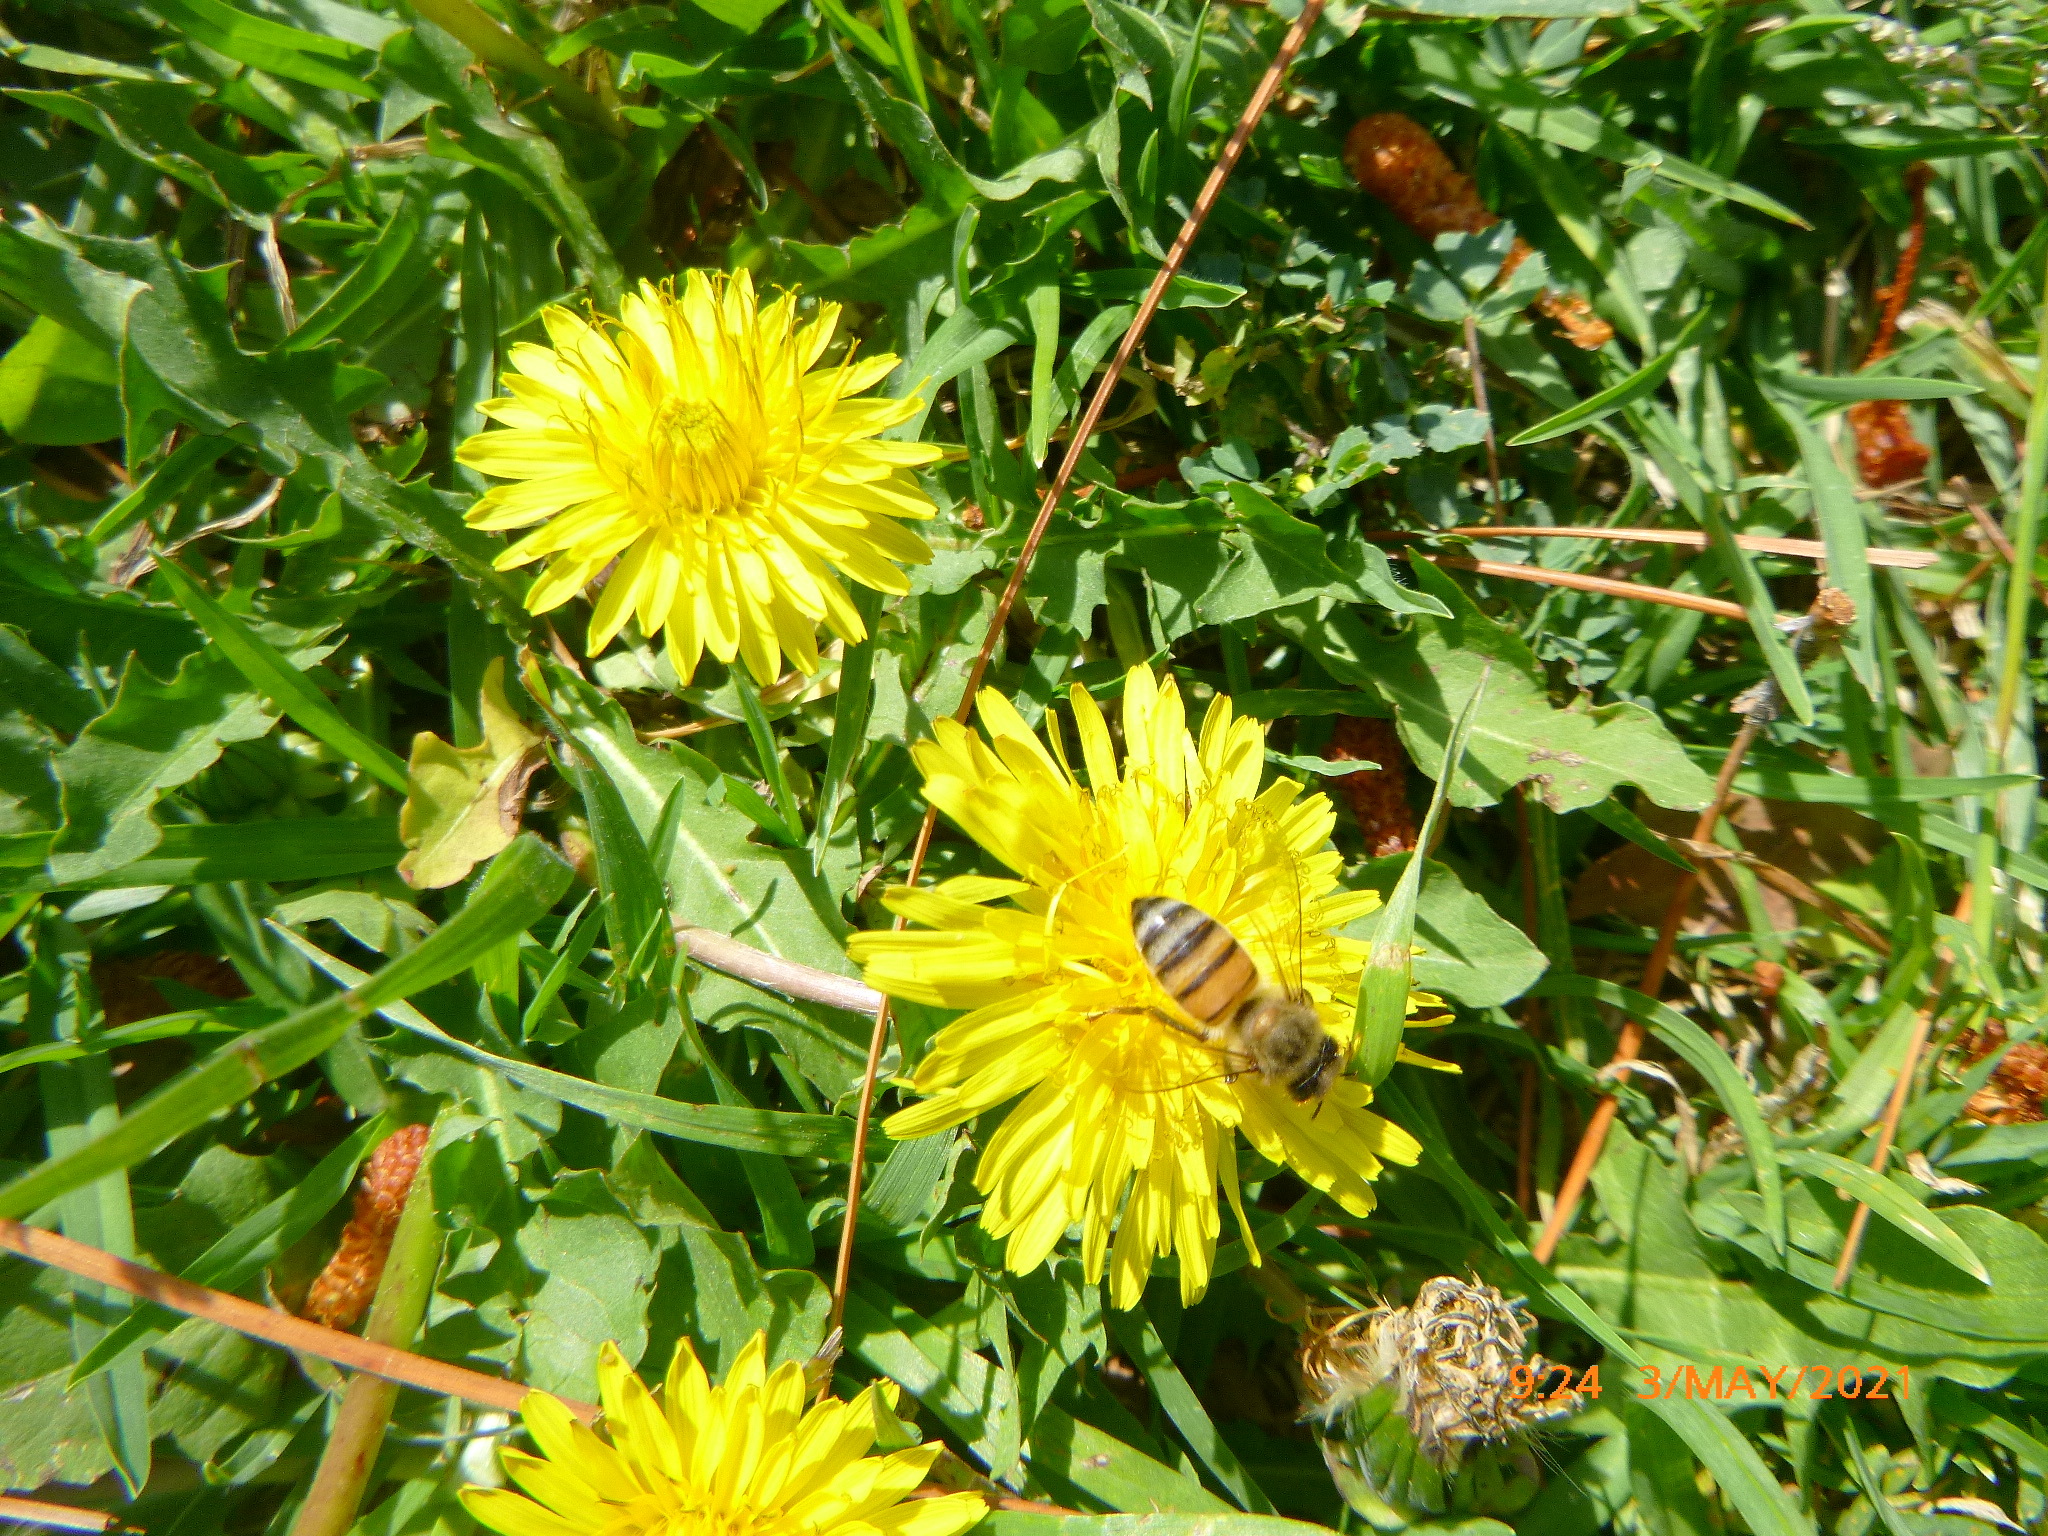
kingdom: Animalia
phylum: Arthropoda
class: Insecta
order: Hymenoptera
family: Apidae
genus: Apis
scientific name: Apis mellifera
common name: Honey bee
